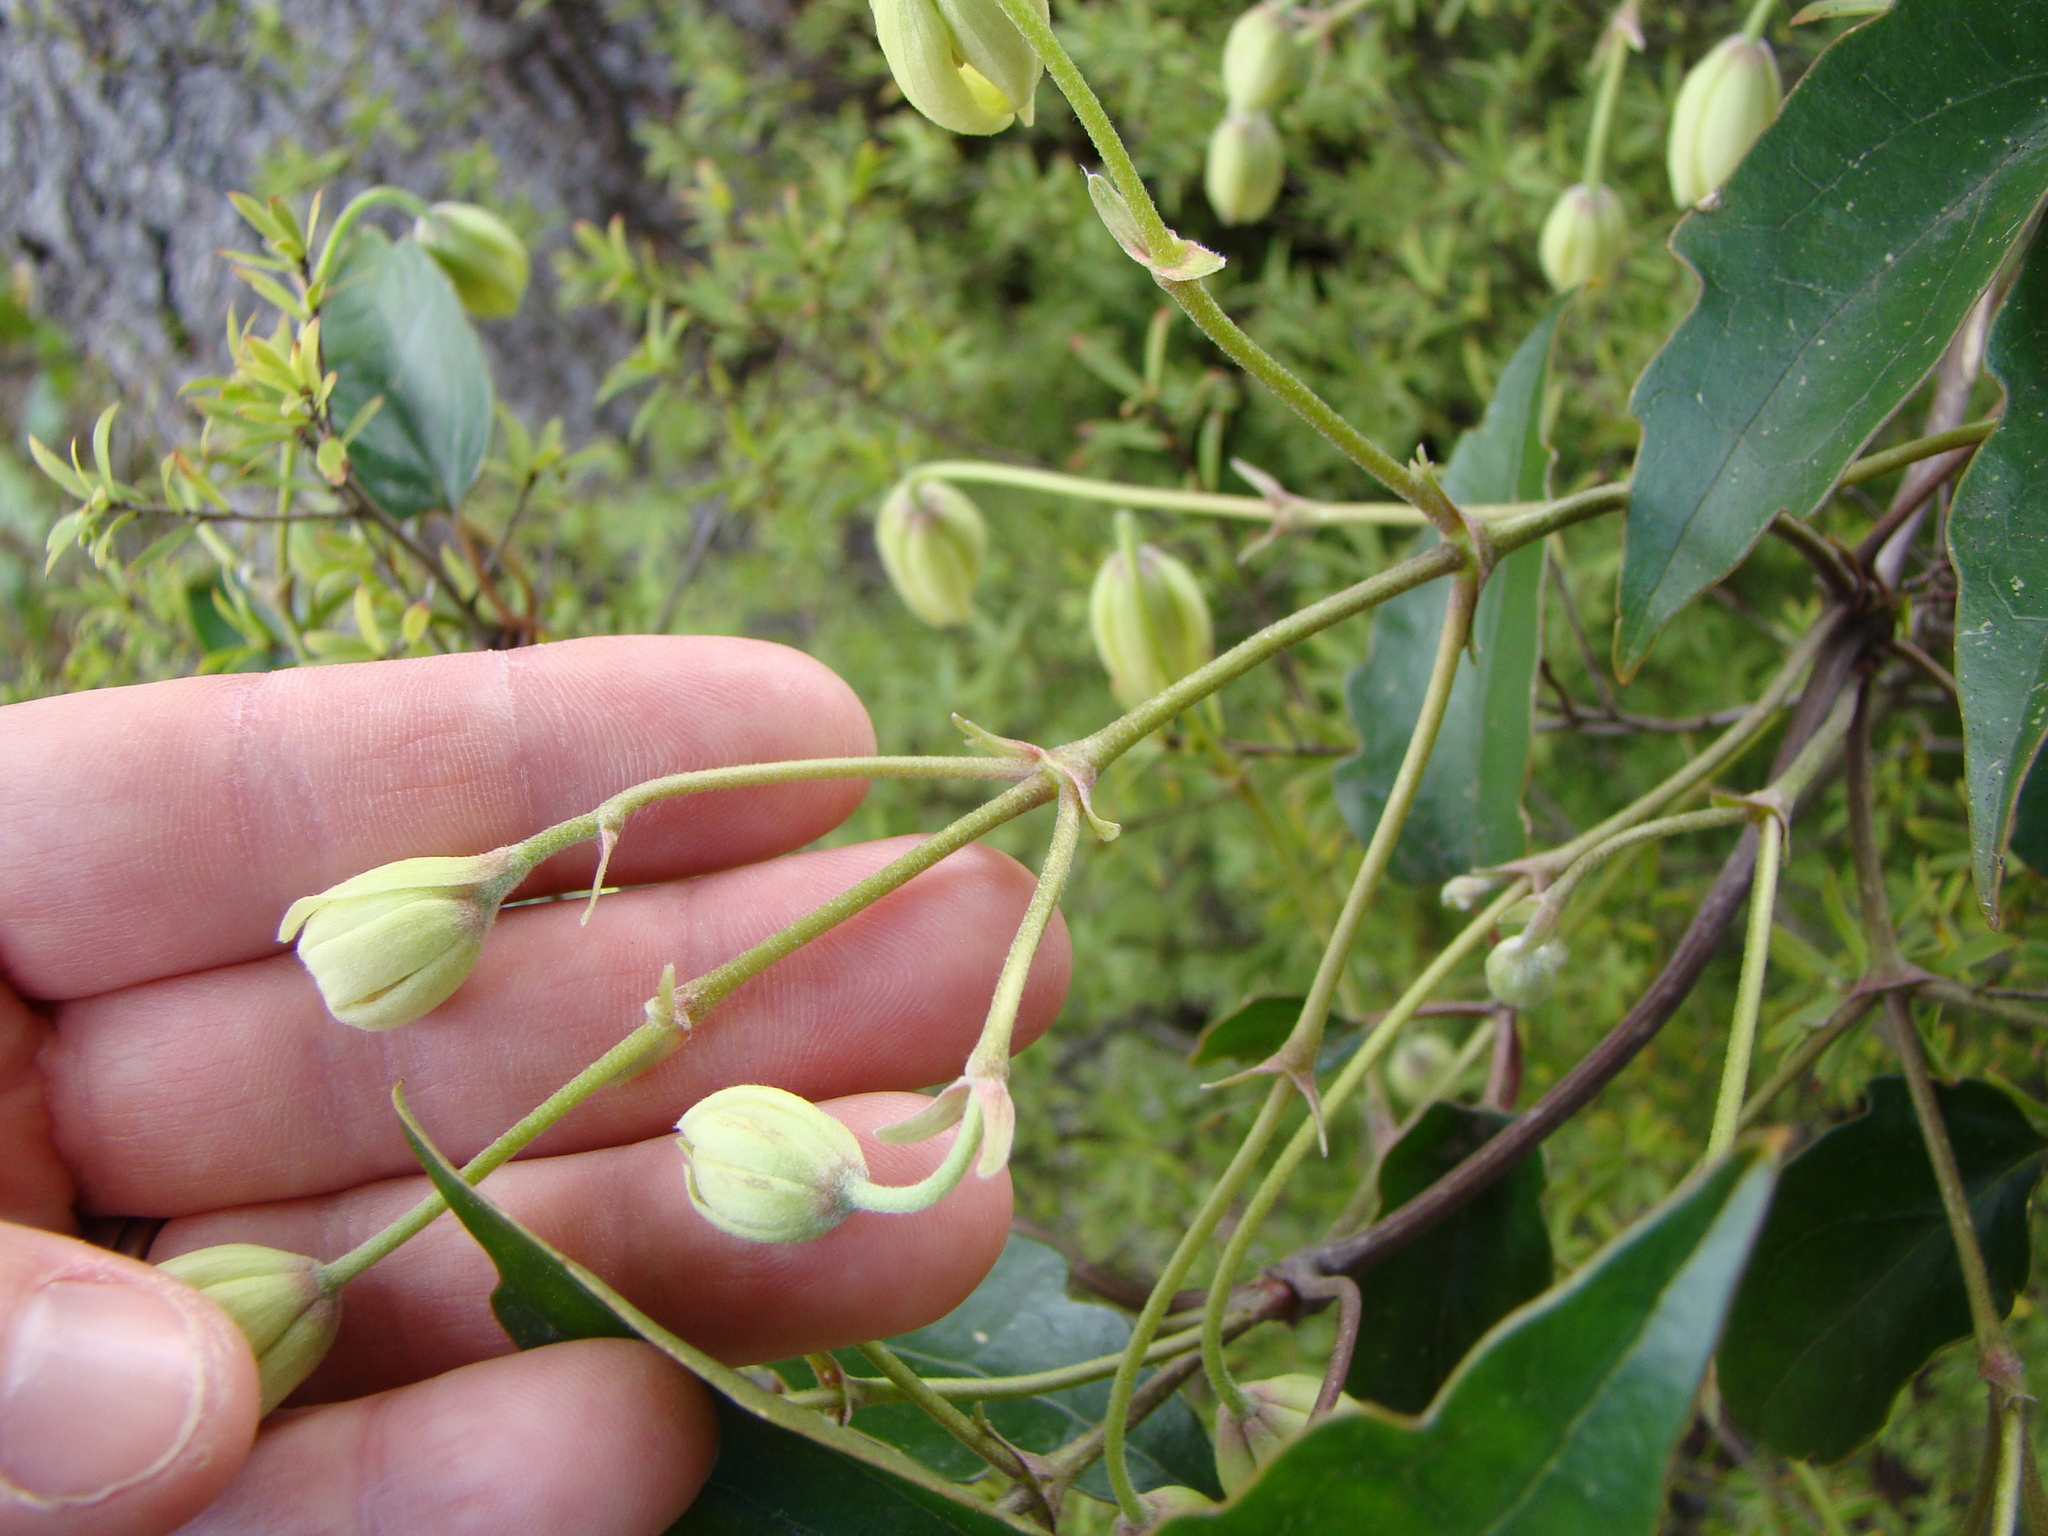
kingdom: Plantae
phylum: Tracheophyta
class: Magnoliopsida
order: Ranunculales
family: Ranunculaceae
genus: Clematis
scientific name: Clematis paniculata
